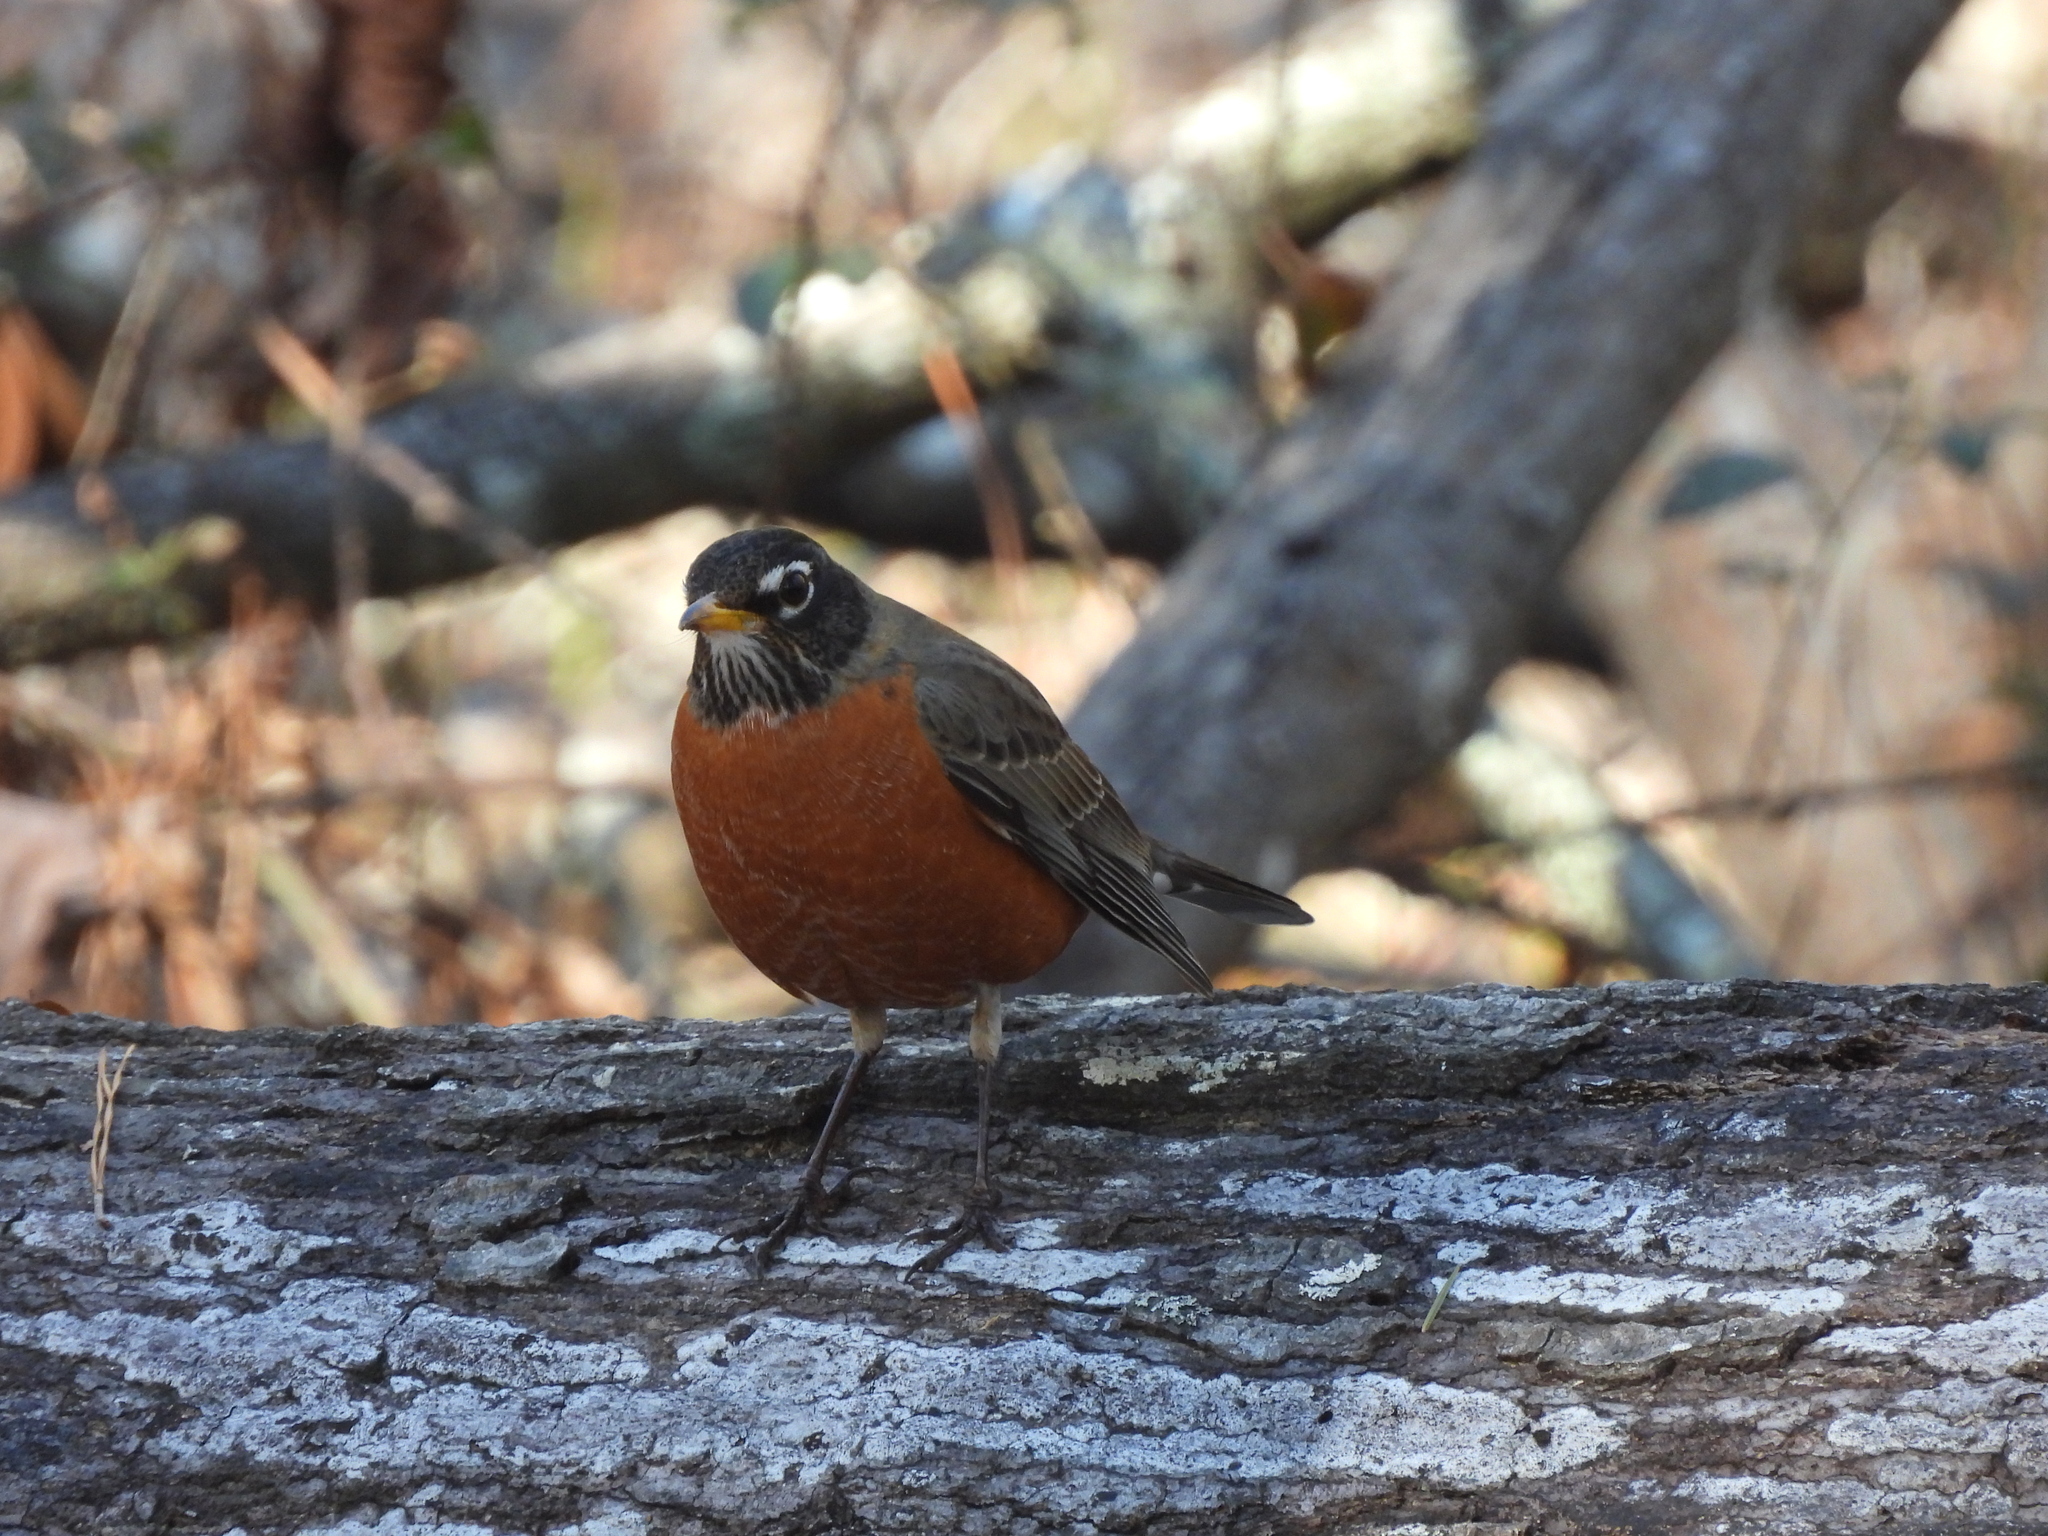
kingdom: Animalia
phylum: Chordata
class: Aves
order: Passeriformes
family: Turdidae
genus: Turdus
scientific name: Turdus migratorius
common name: American robin
